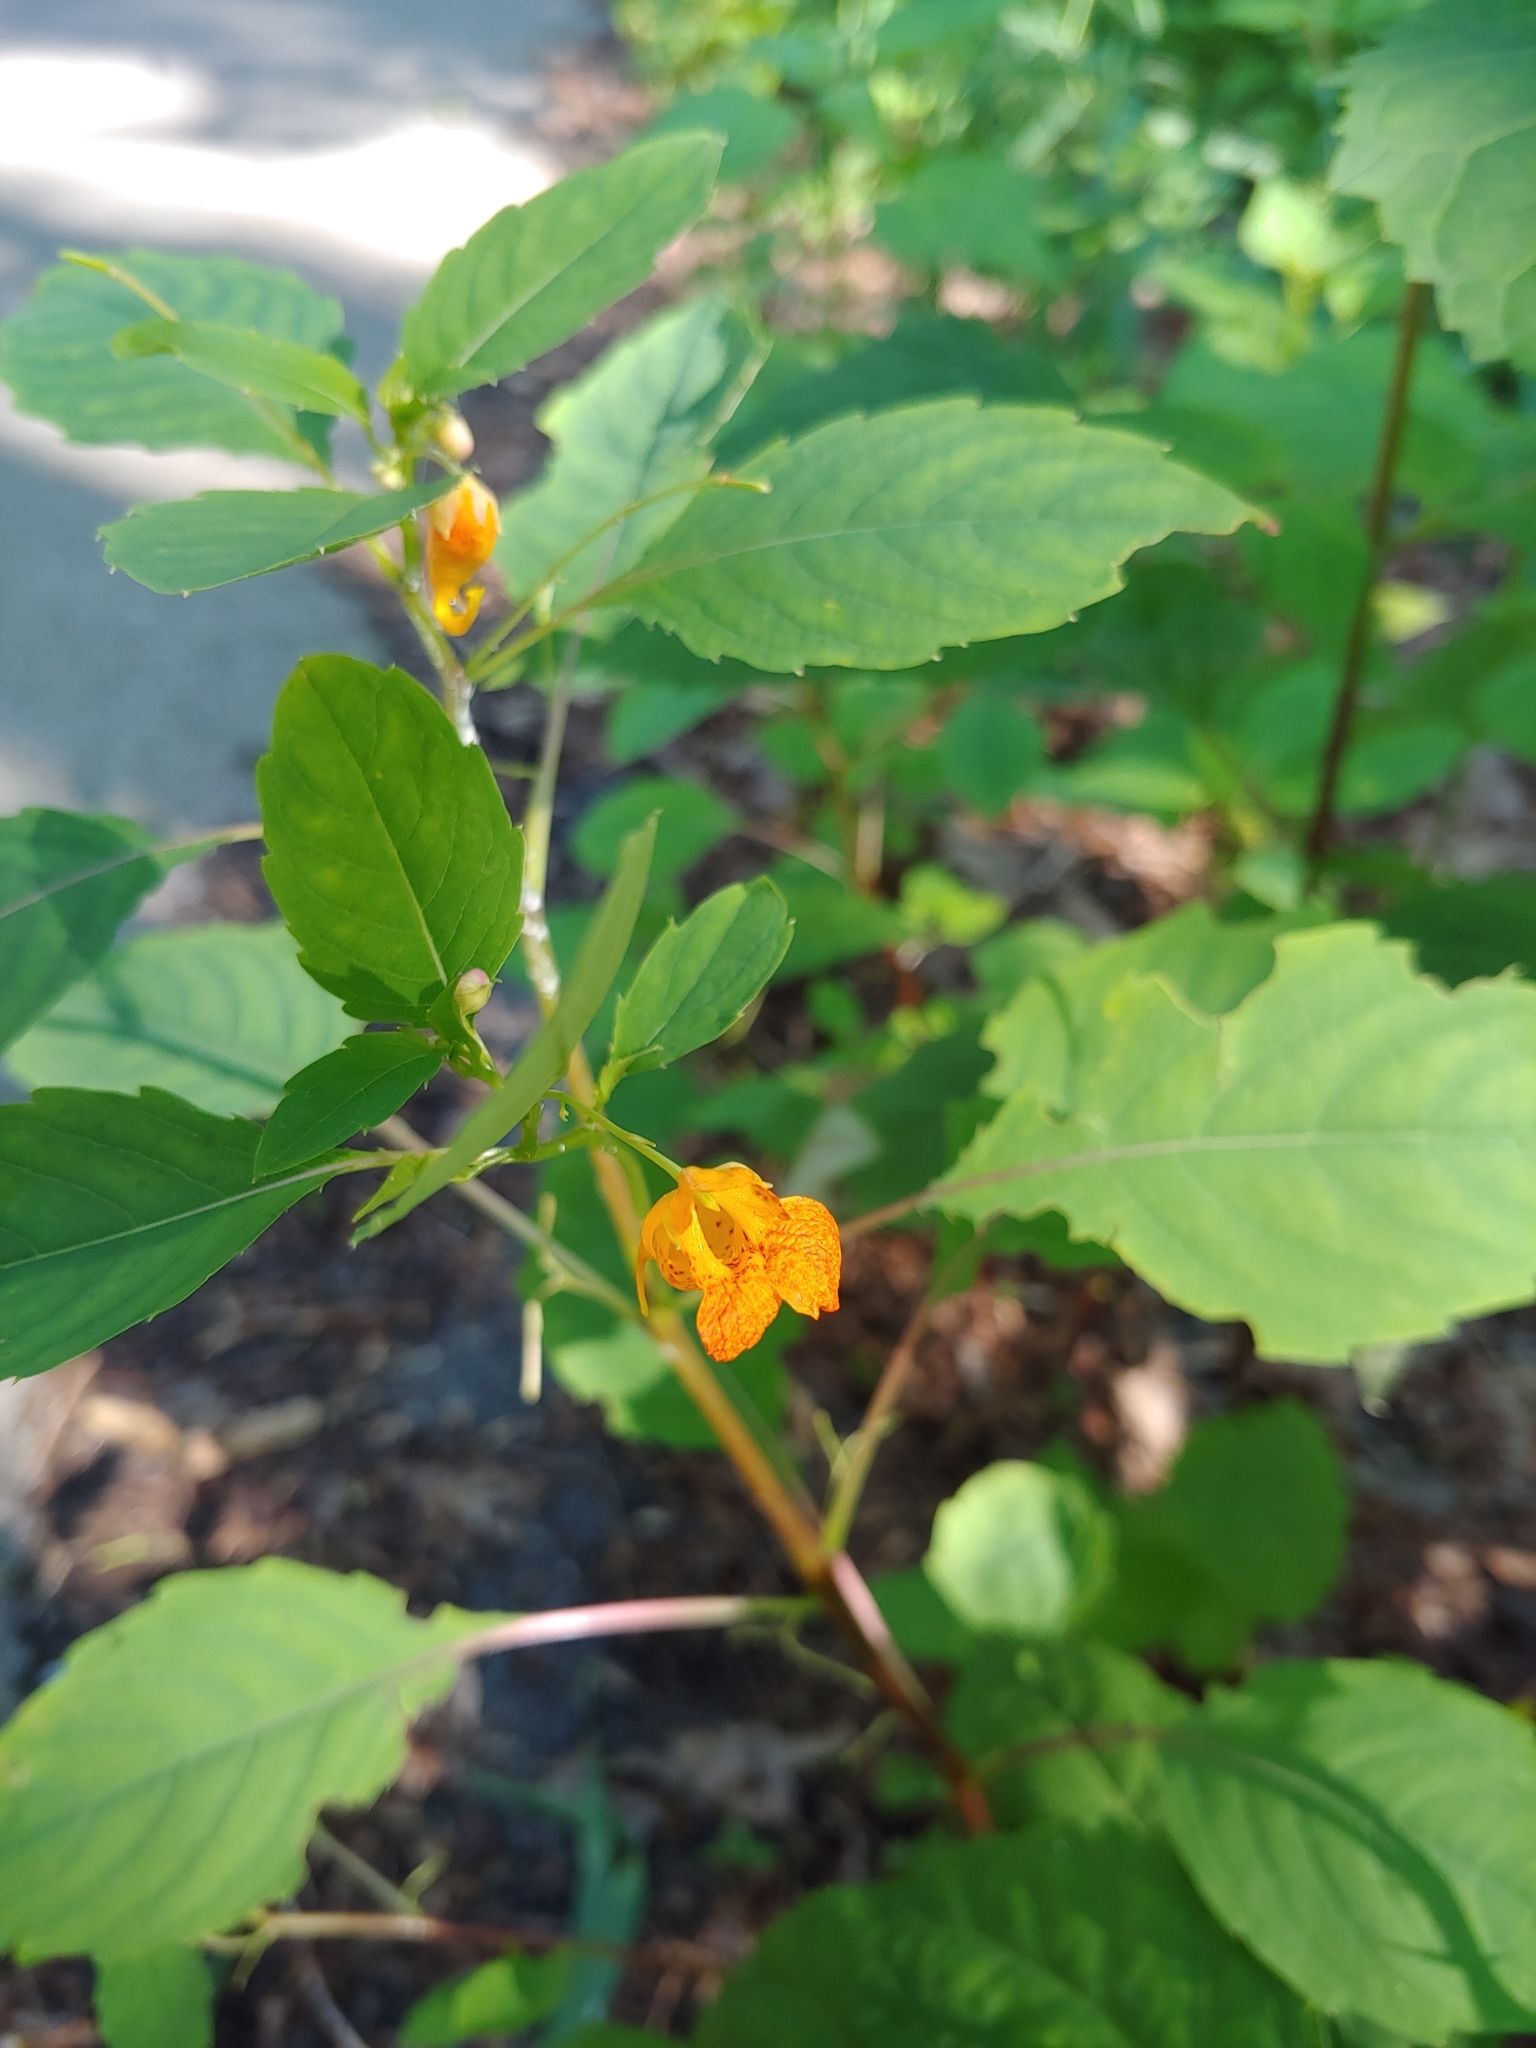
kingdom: Plantae
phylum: Tracheophyta
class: Magnoliopsida
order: Ericales
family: Balsaminaceae
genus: Impatiens
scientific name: Impatiens capensis
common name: Orange balsam
